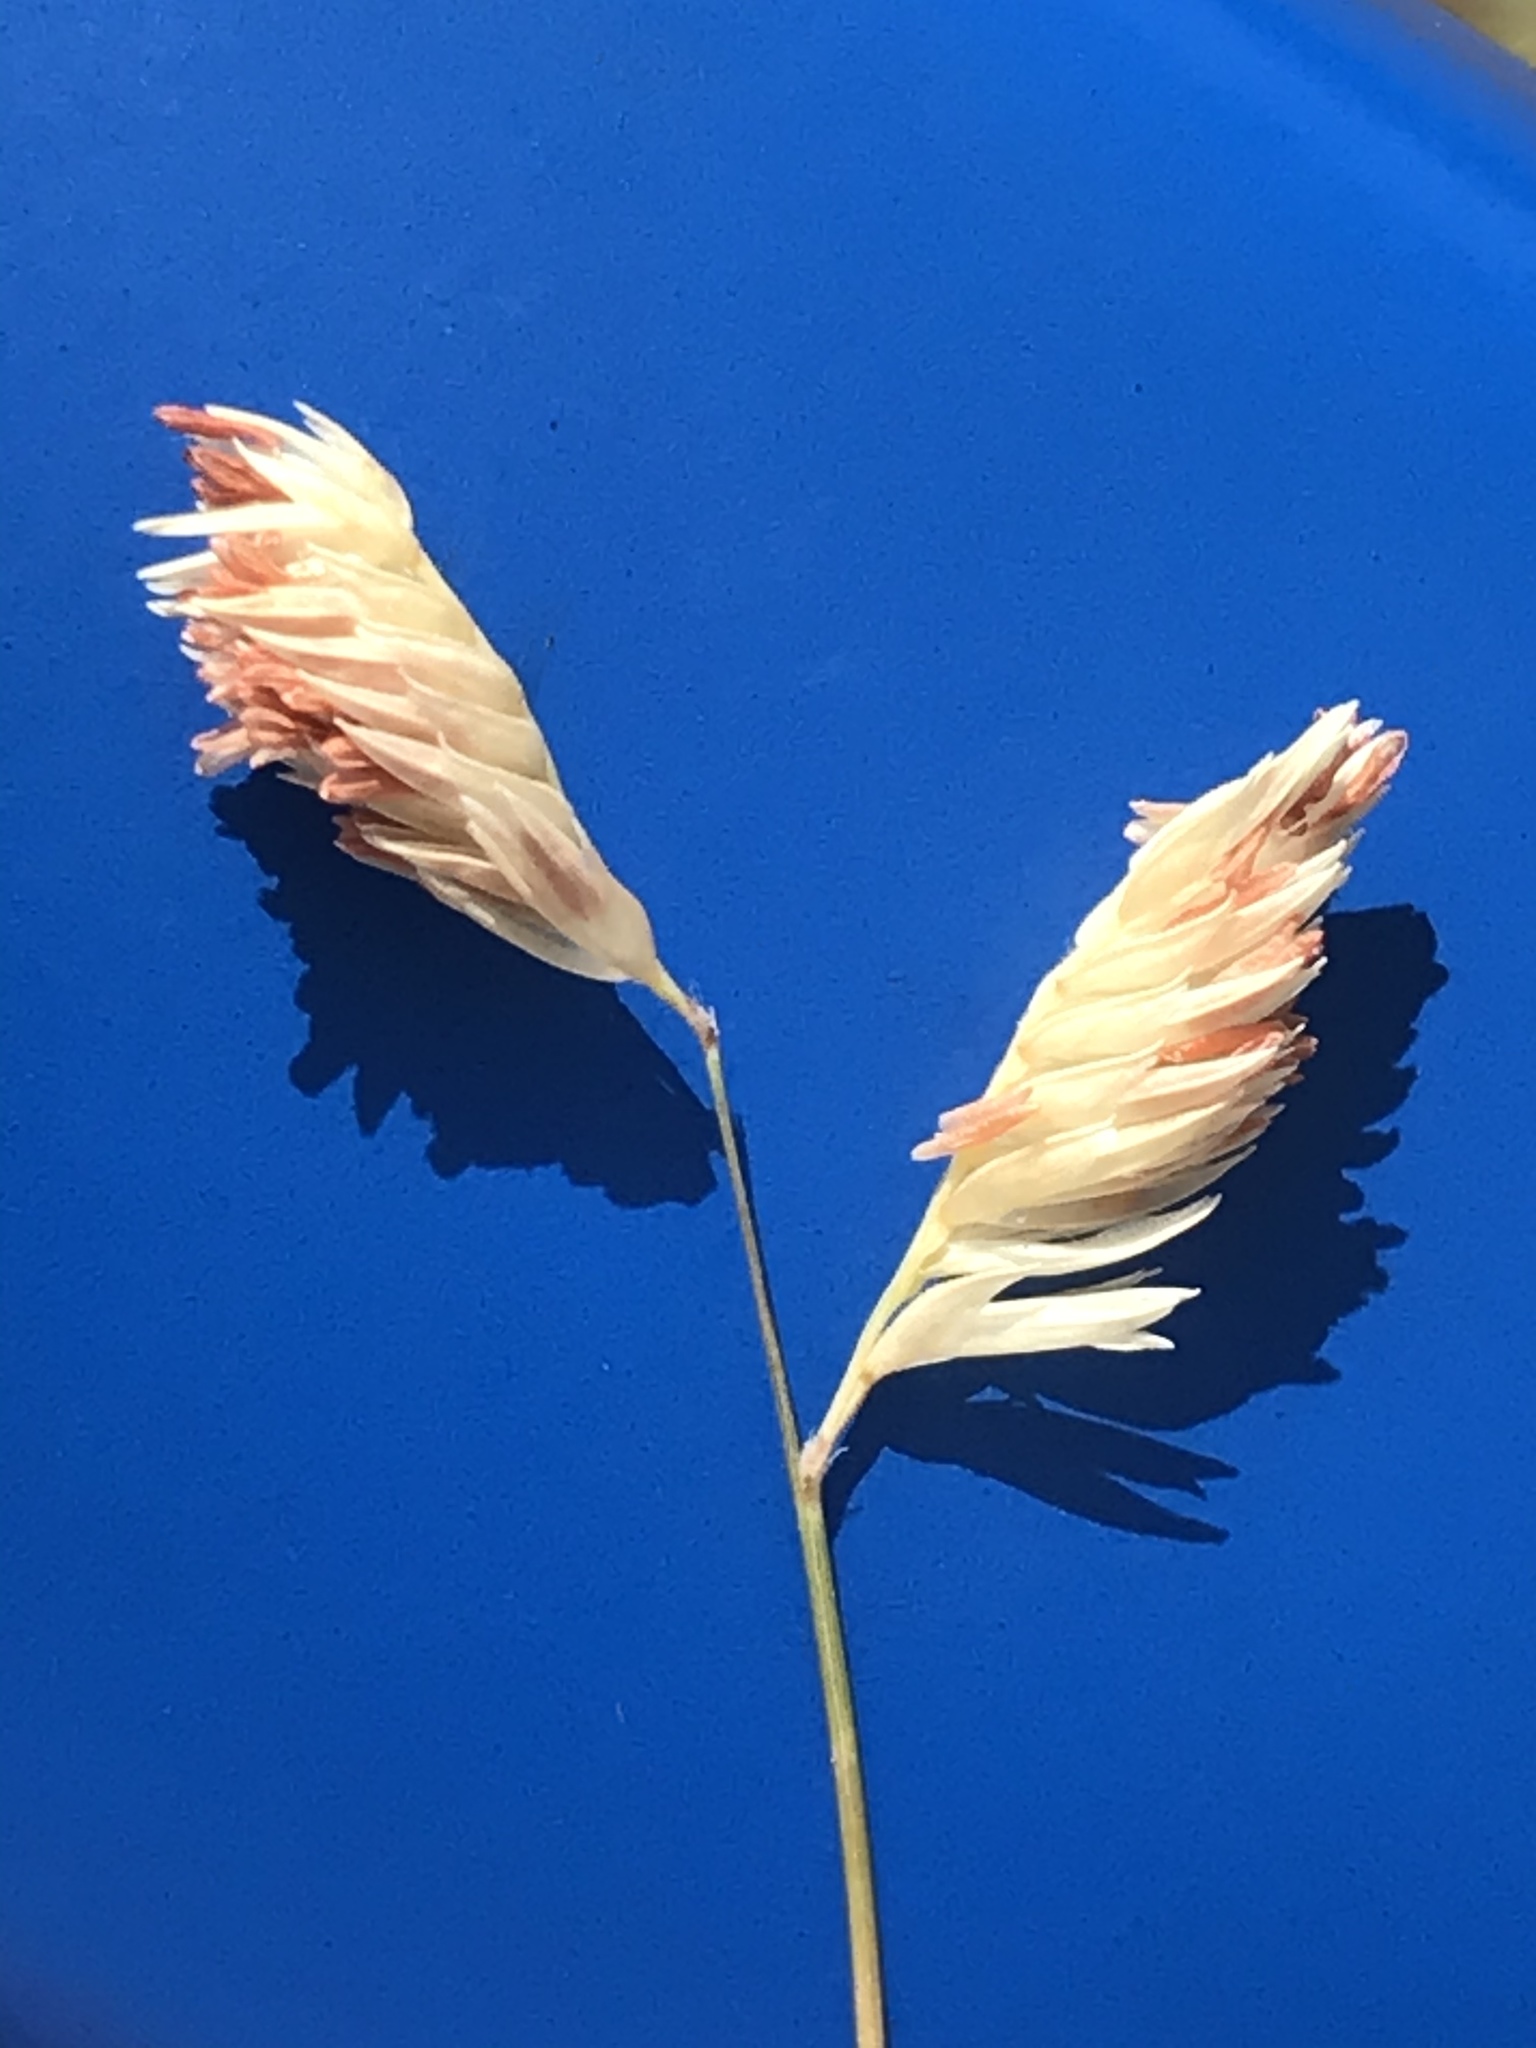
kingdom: Plantae
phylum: Tracheophyta
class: Liliopsida
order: Poales
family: Poaceae
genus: Bouteloua
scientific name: Bouteloua dactyloides
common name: Buffalo grass
